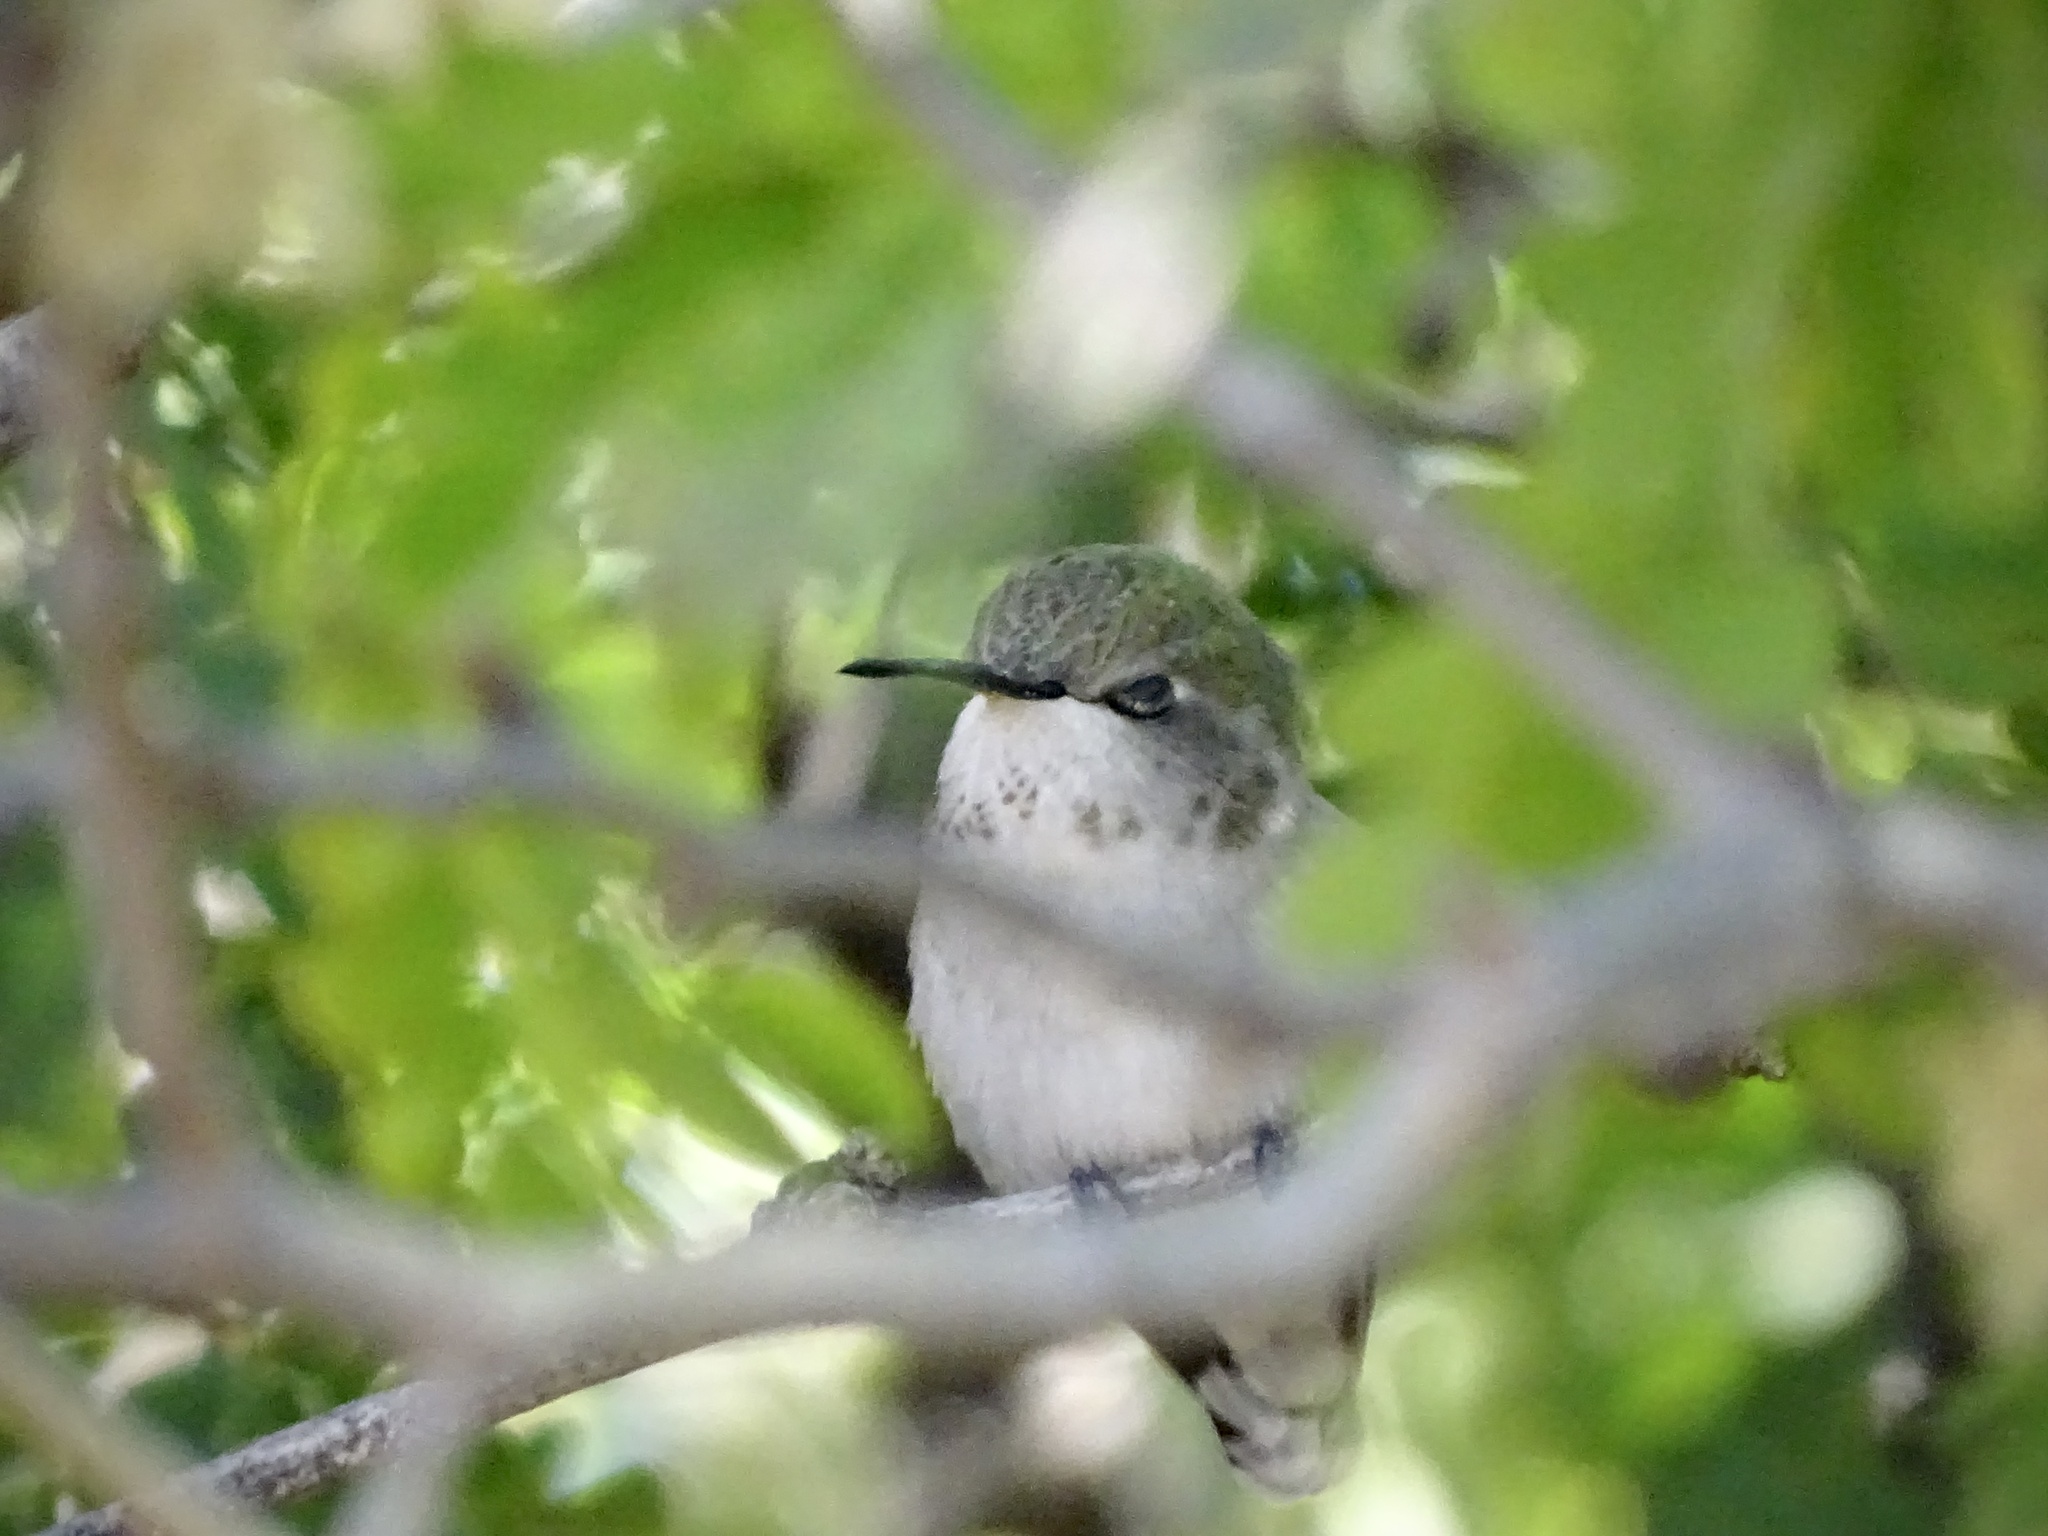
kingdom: Animalia
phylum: Chordata
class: Aves
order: Apodiformes
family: Trochilidae
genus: Calypte
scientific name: Calypte costae
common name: Costa's hummingbird
